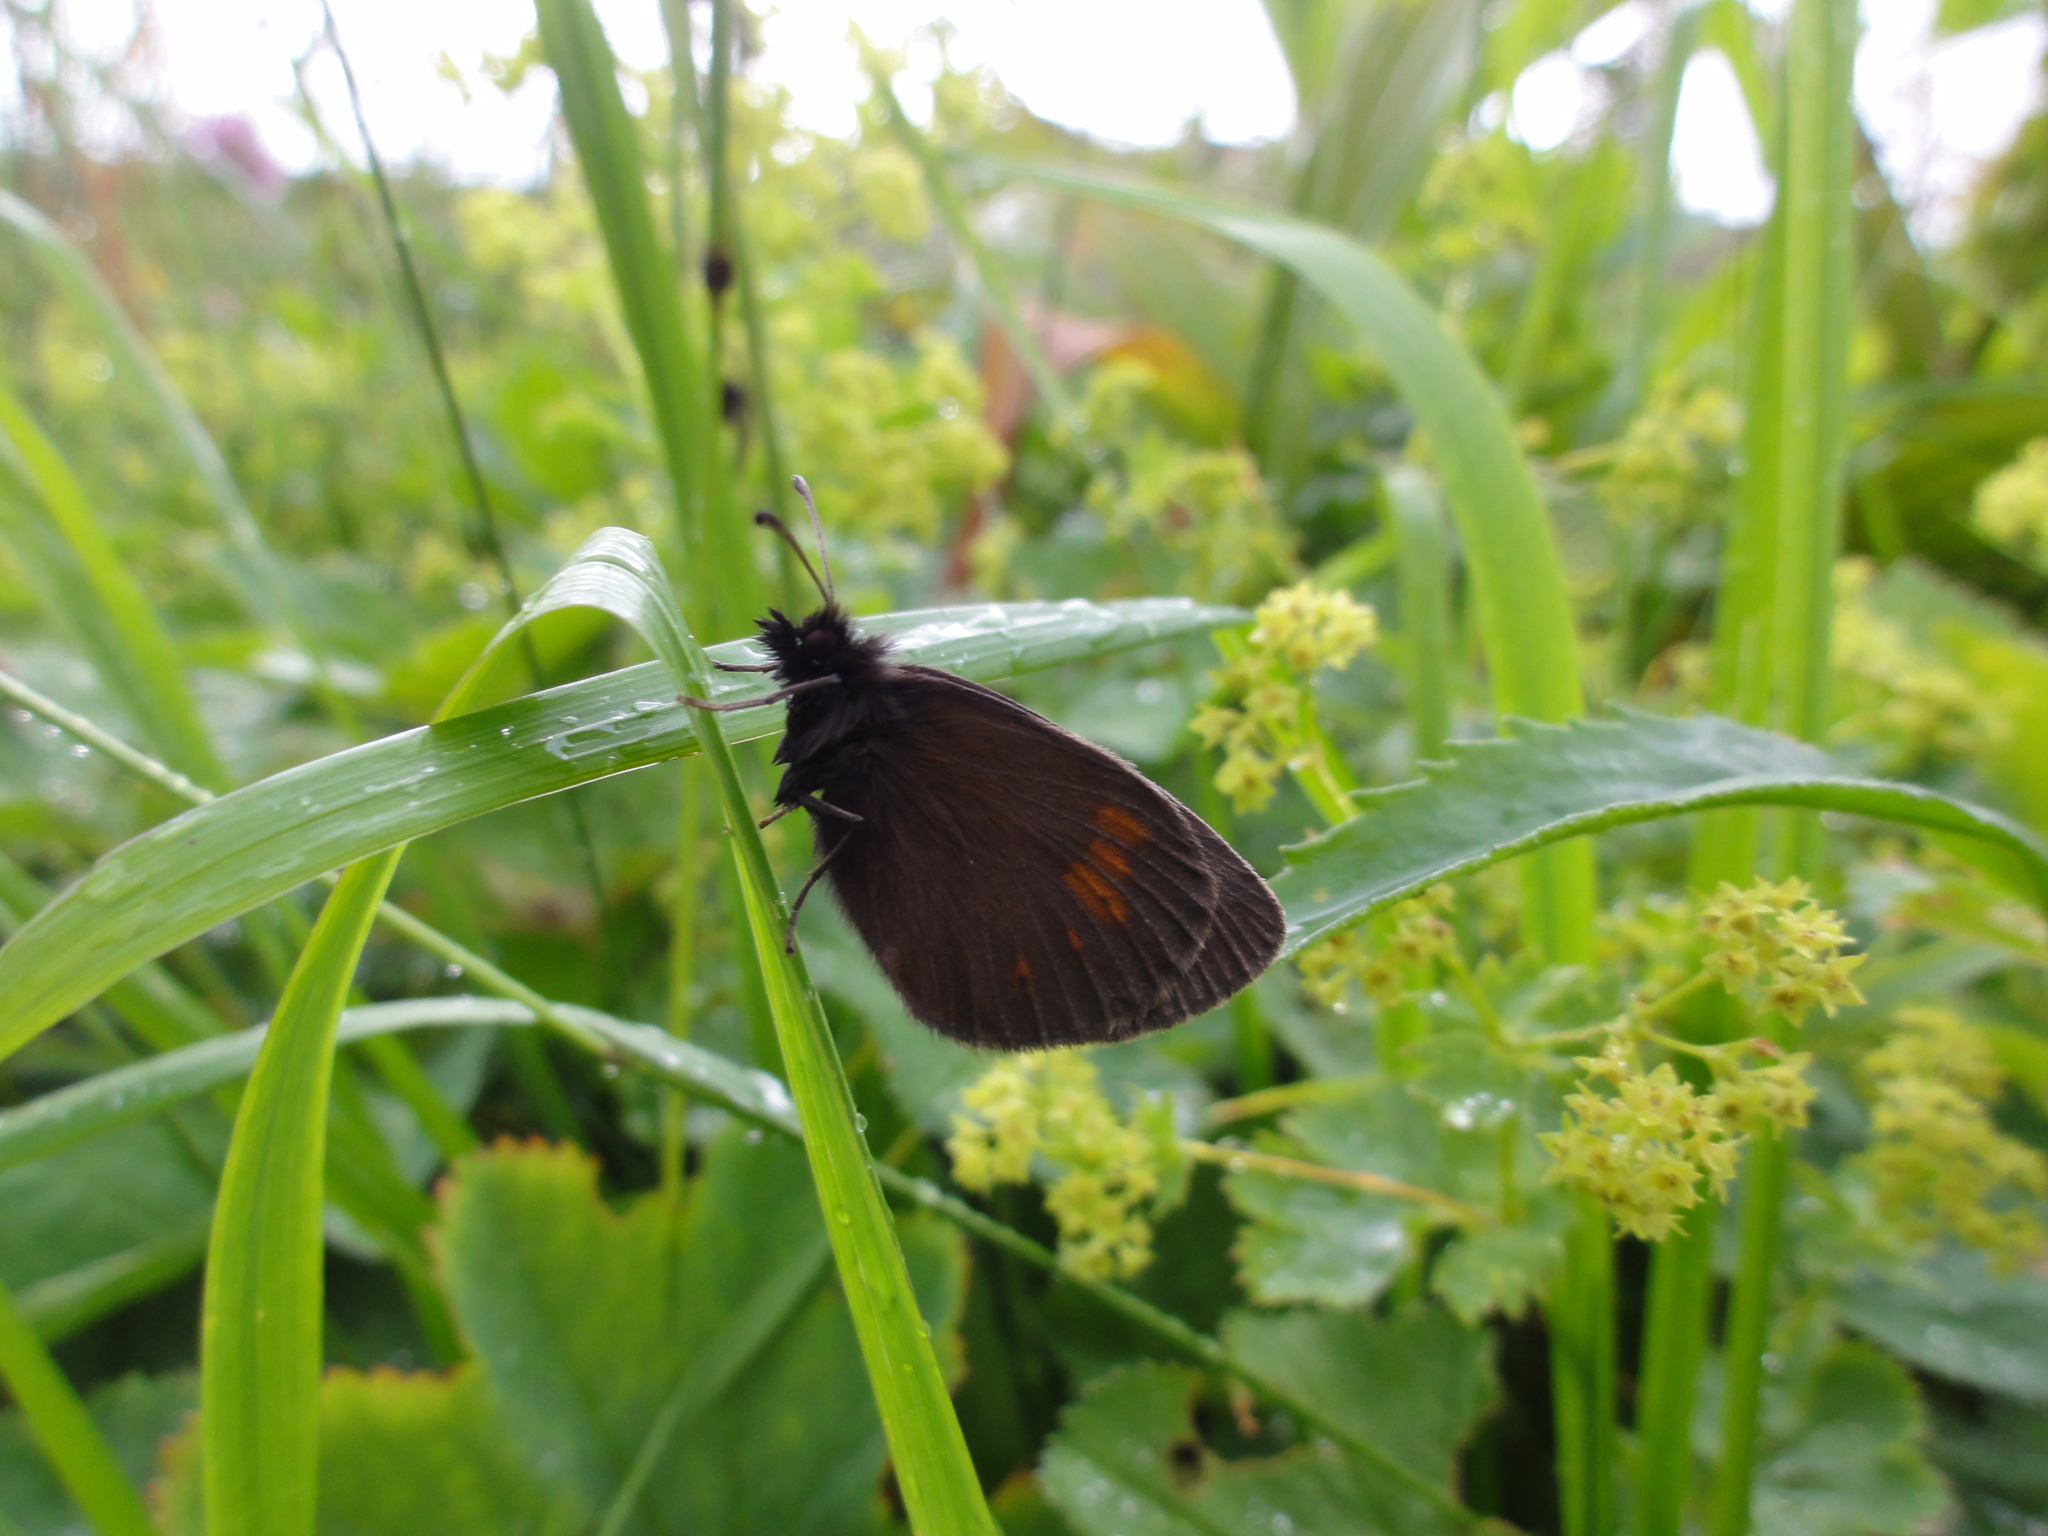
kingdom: Animalia
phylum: Arthropoda
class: Insecta
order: Lepidoptera
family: Nymphalidae
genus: Erebia
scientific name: Erebia manto
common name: Yellow-spotted ringlet
